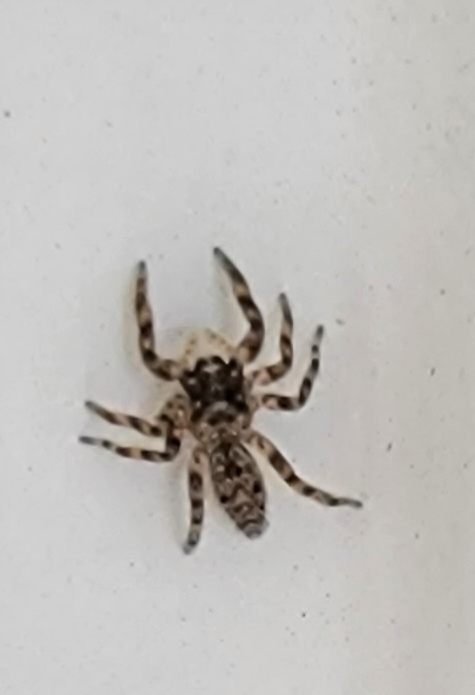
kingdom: Animalia
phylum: Arthropoda
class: Arachnida
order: Araneae
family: Salticidae
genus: Platycryptus
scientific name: Platycryptus undatus
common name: Tan jumping spider
